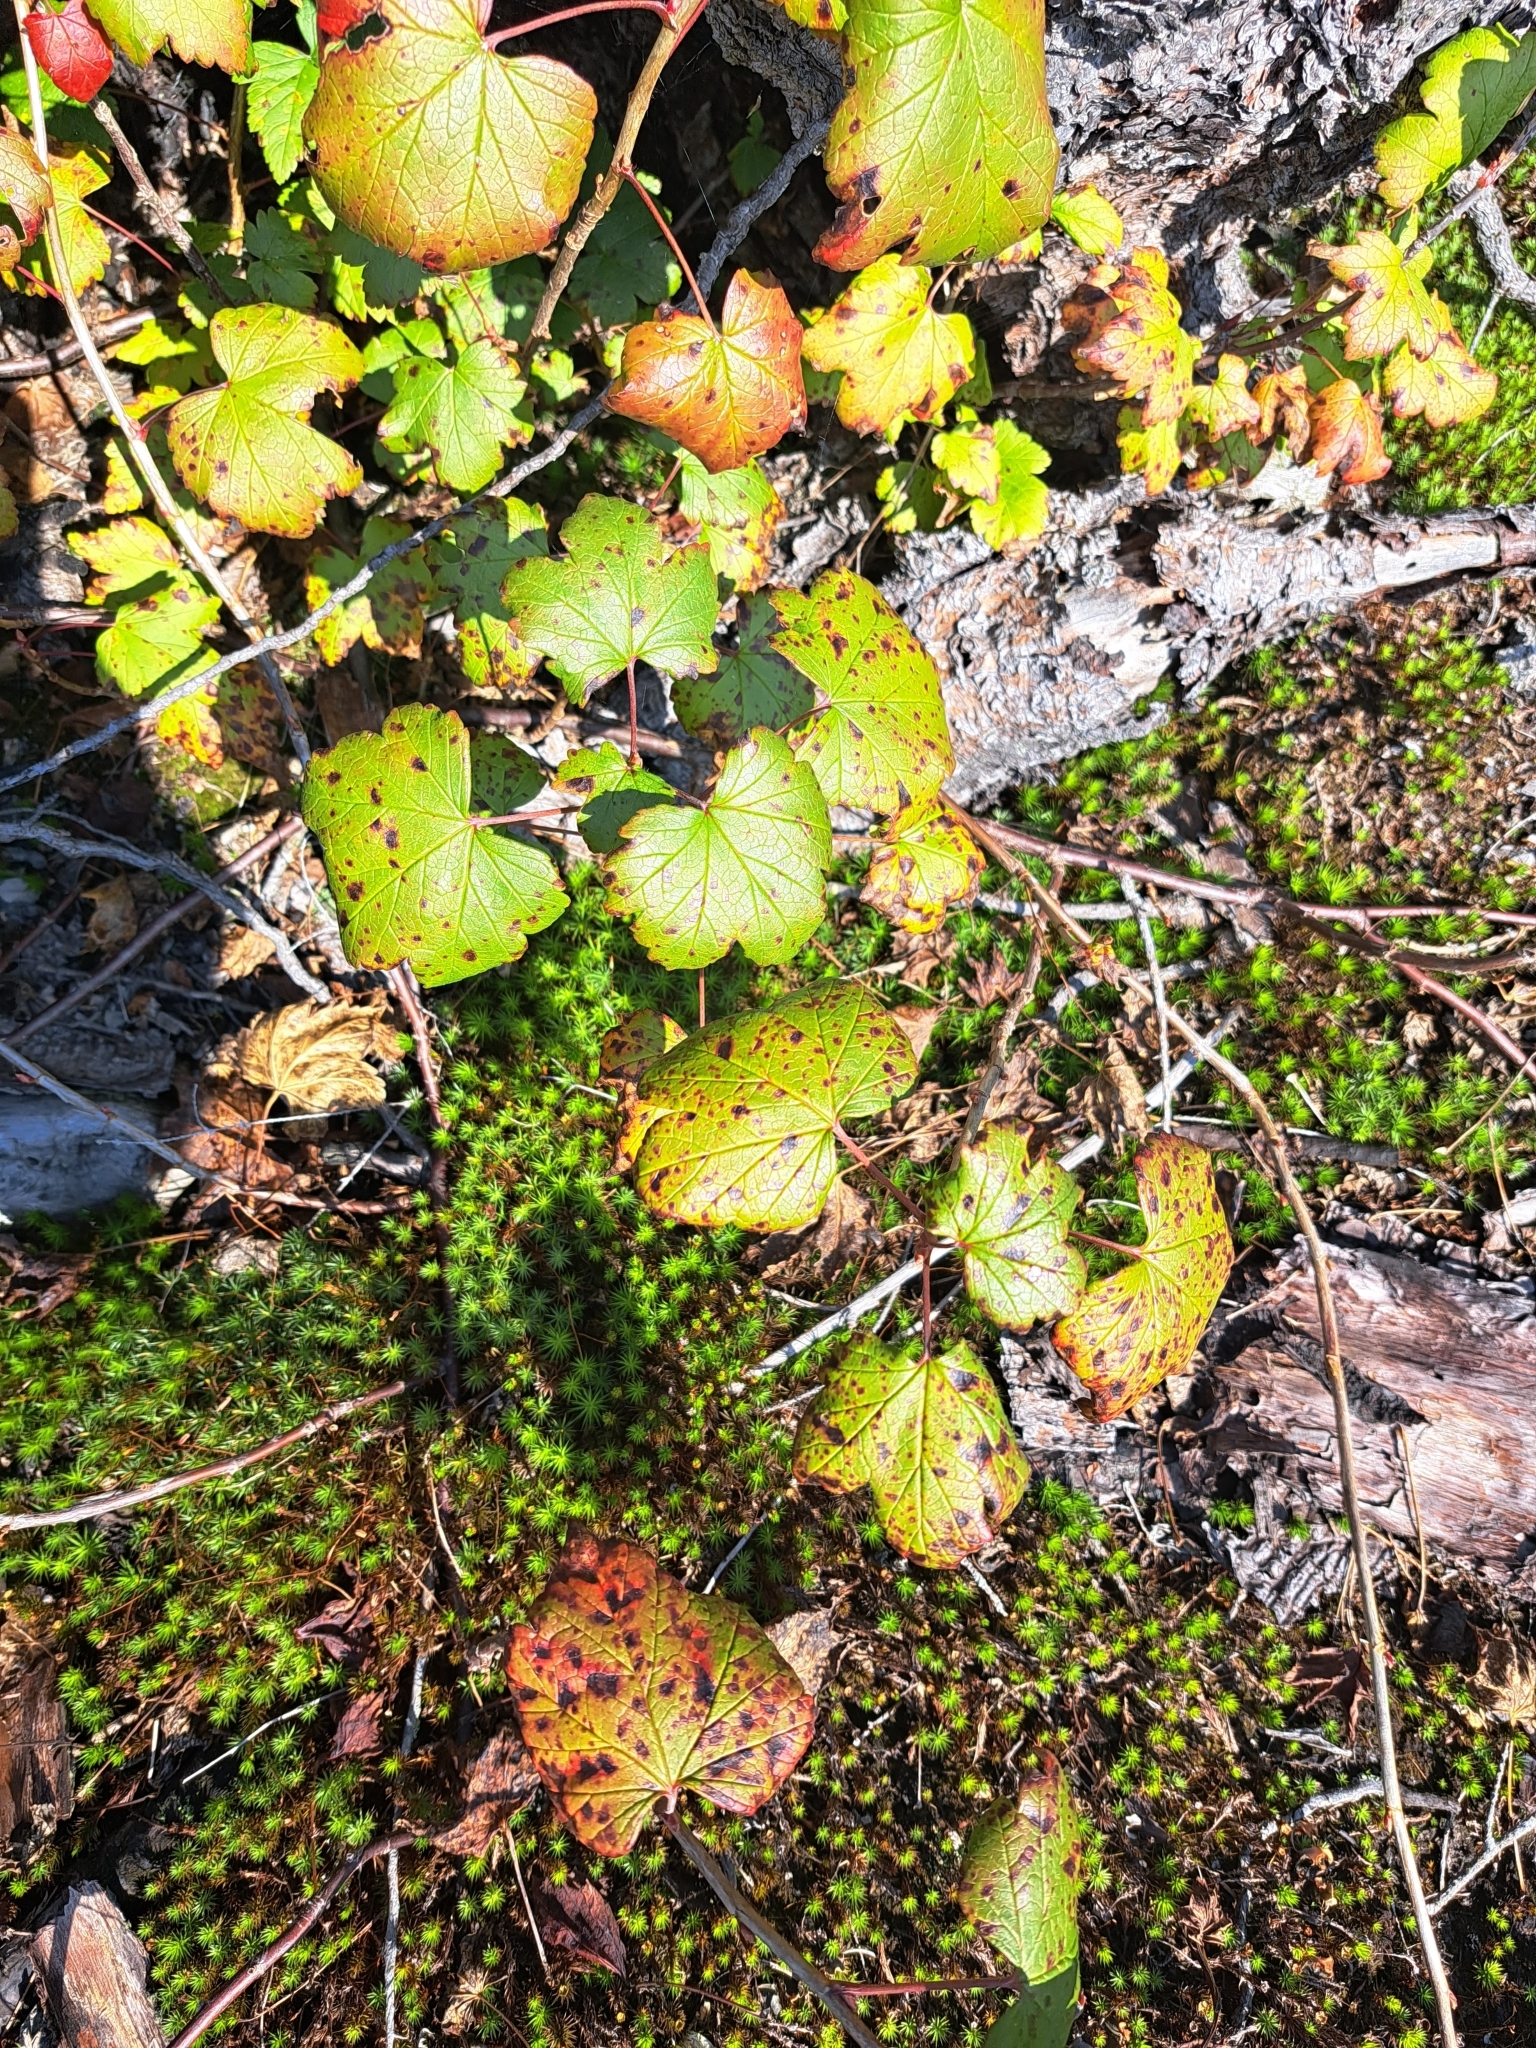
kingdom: Plantae
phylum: Tracheophyta
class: Magnoliopsida
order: Saxifragales
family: Grossulariaceae
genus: Ribes
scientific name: Ribes glandulosum
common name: Skunk currant
